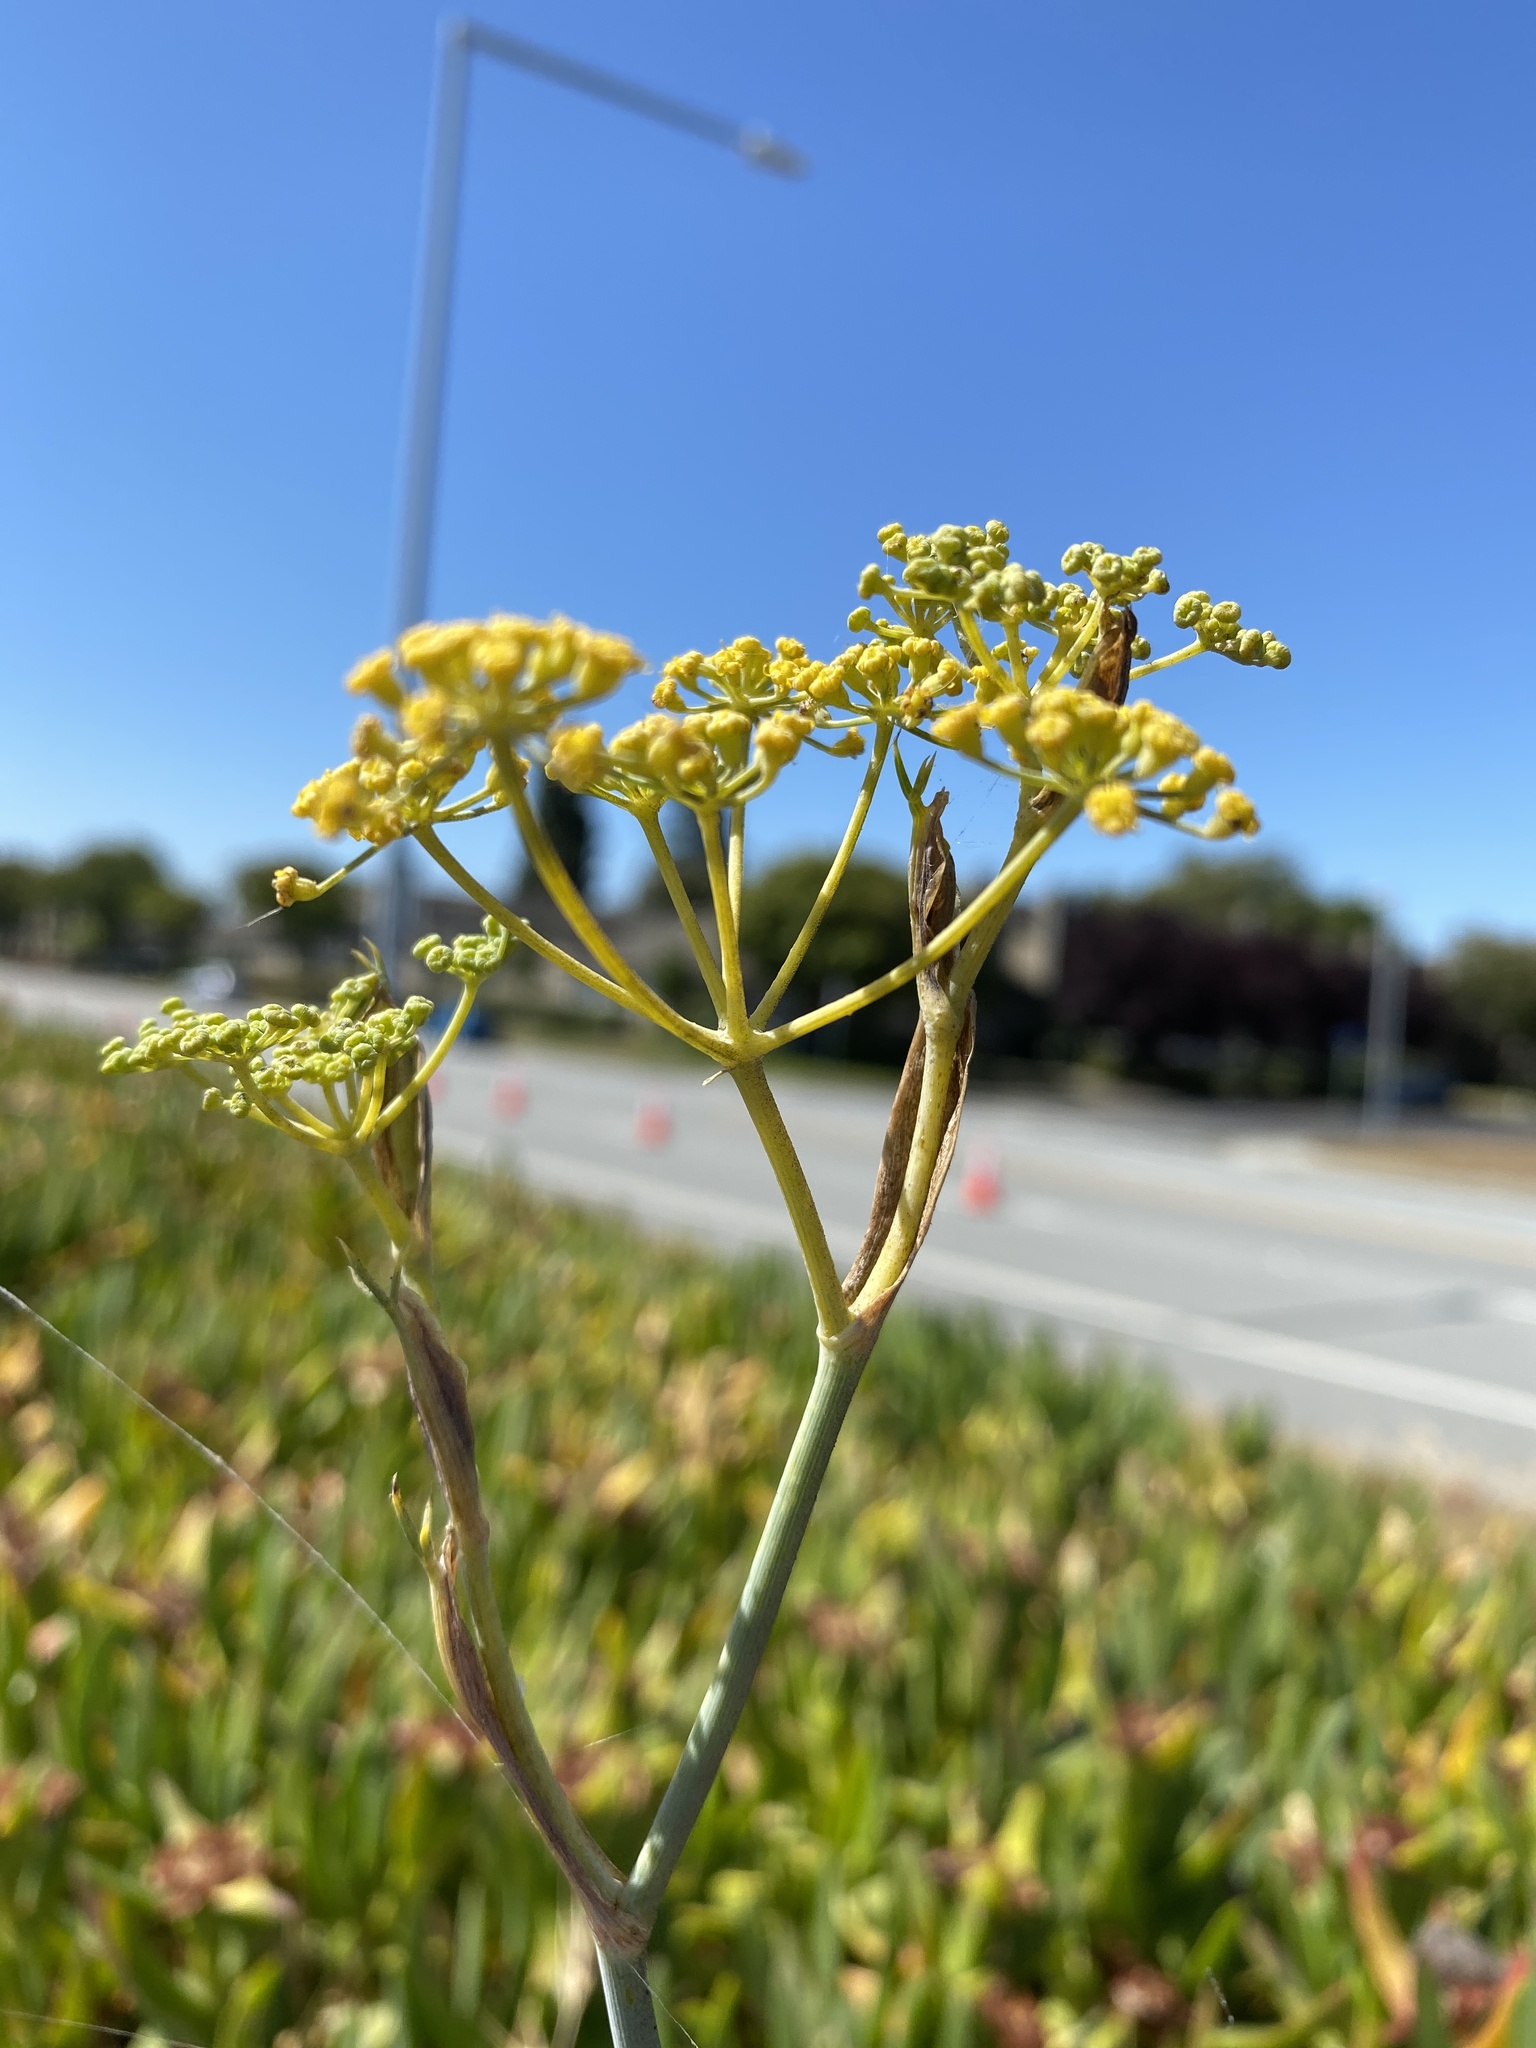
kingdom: Plantae
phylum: Tracheophyta
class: Magnoliopsida
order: Apiales
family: Apiaceae
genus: Foeniculum
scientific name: Foeniculum vulgare
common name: Fennel
